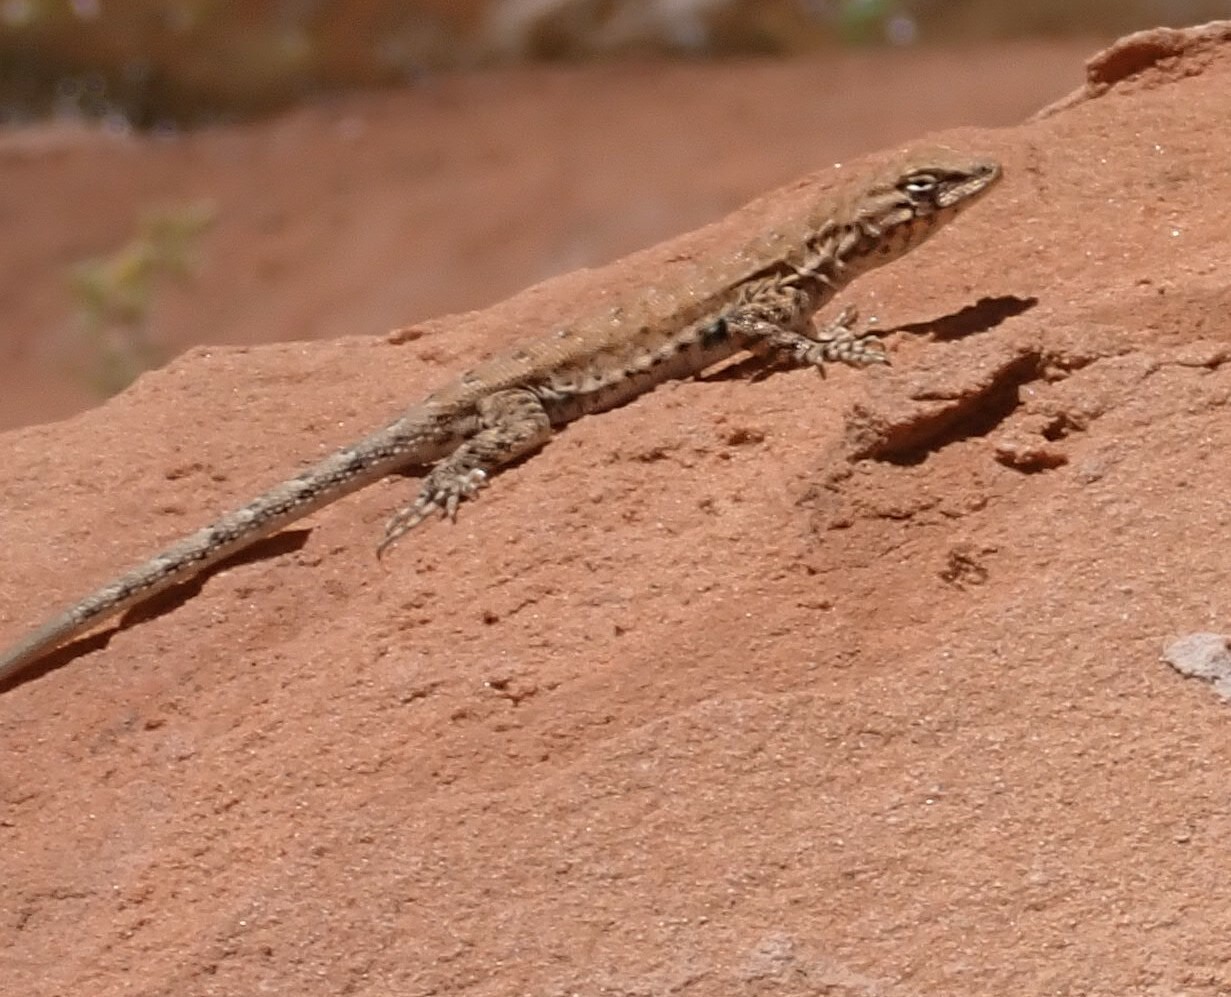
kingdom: Animalia
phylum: Chordata
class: Squamata
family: Phrynosomatidae
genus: Uta
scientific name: Uta stansburiana
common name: Side-blotched lizard
